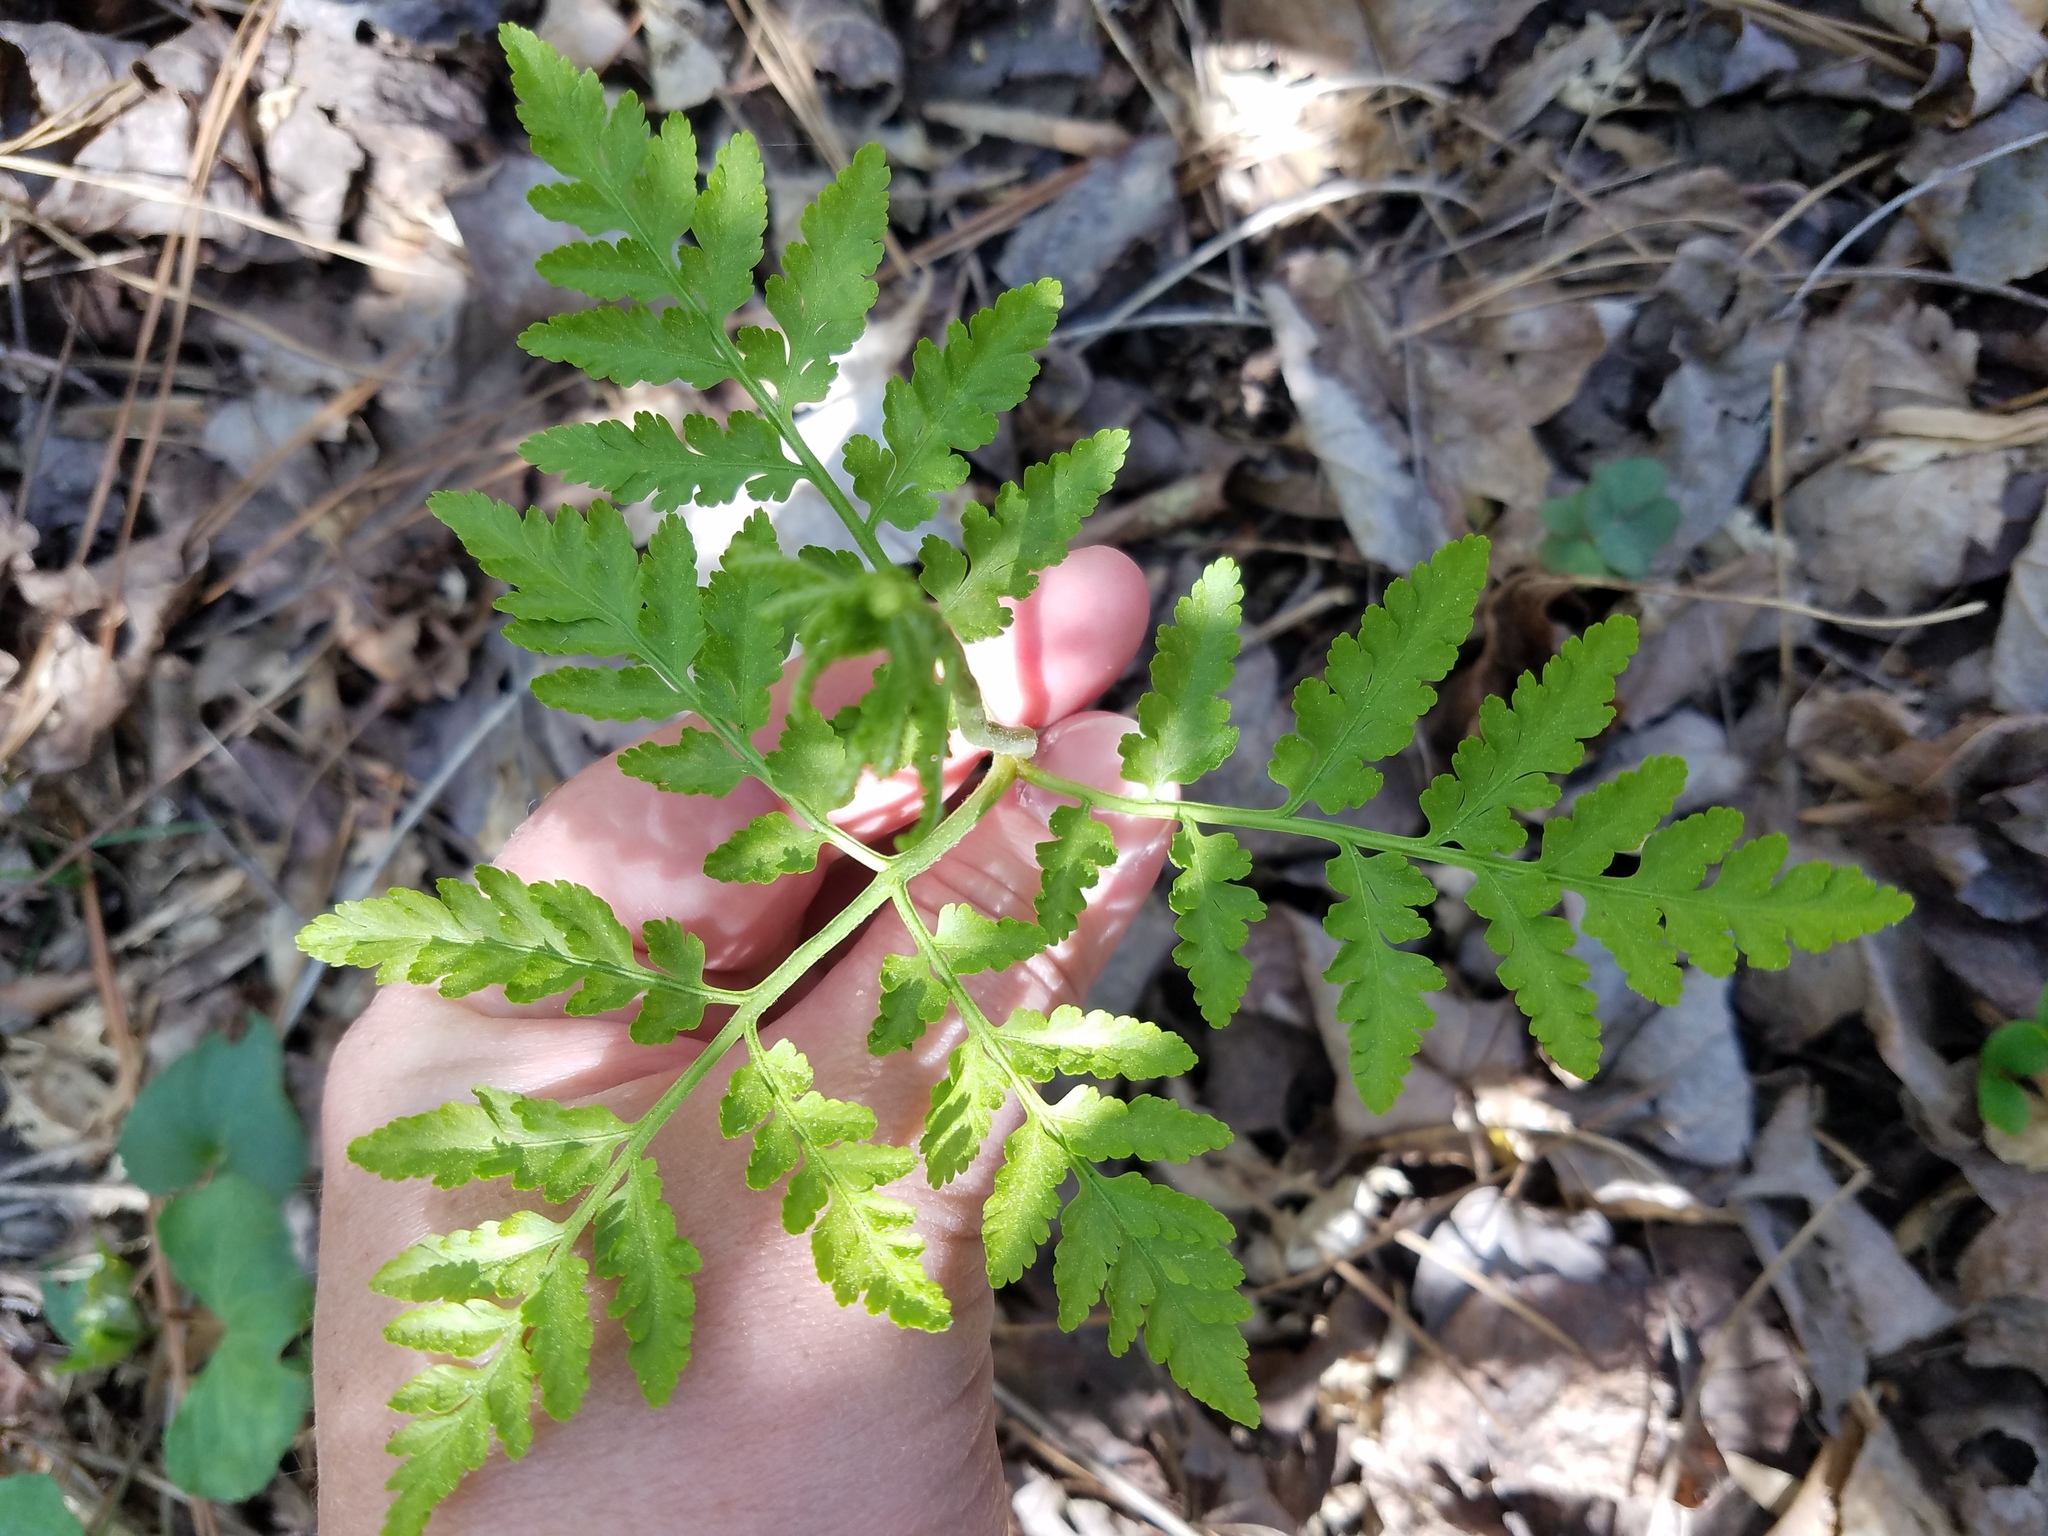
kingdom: Plantae
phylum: Tracheophyta
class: Polypodiopsida
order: Ophioglossales
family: Ophioglossaceae
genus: Botrypus
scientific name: Botrypus virginianus
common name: Common grapefern
